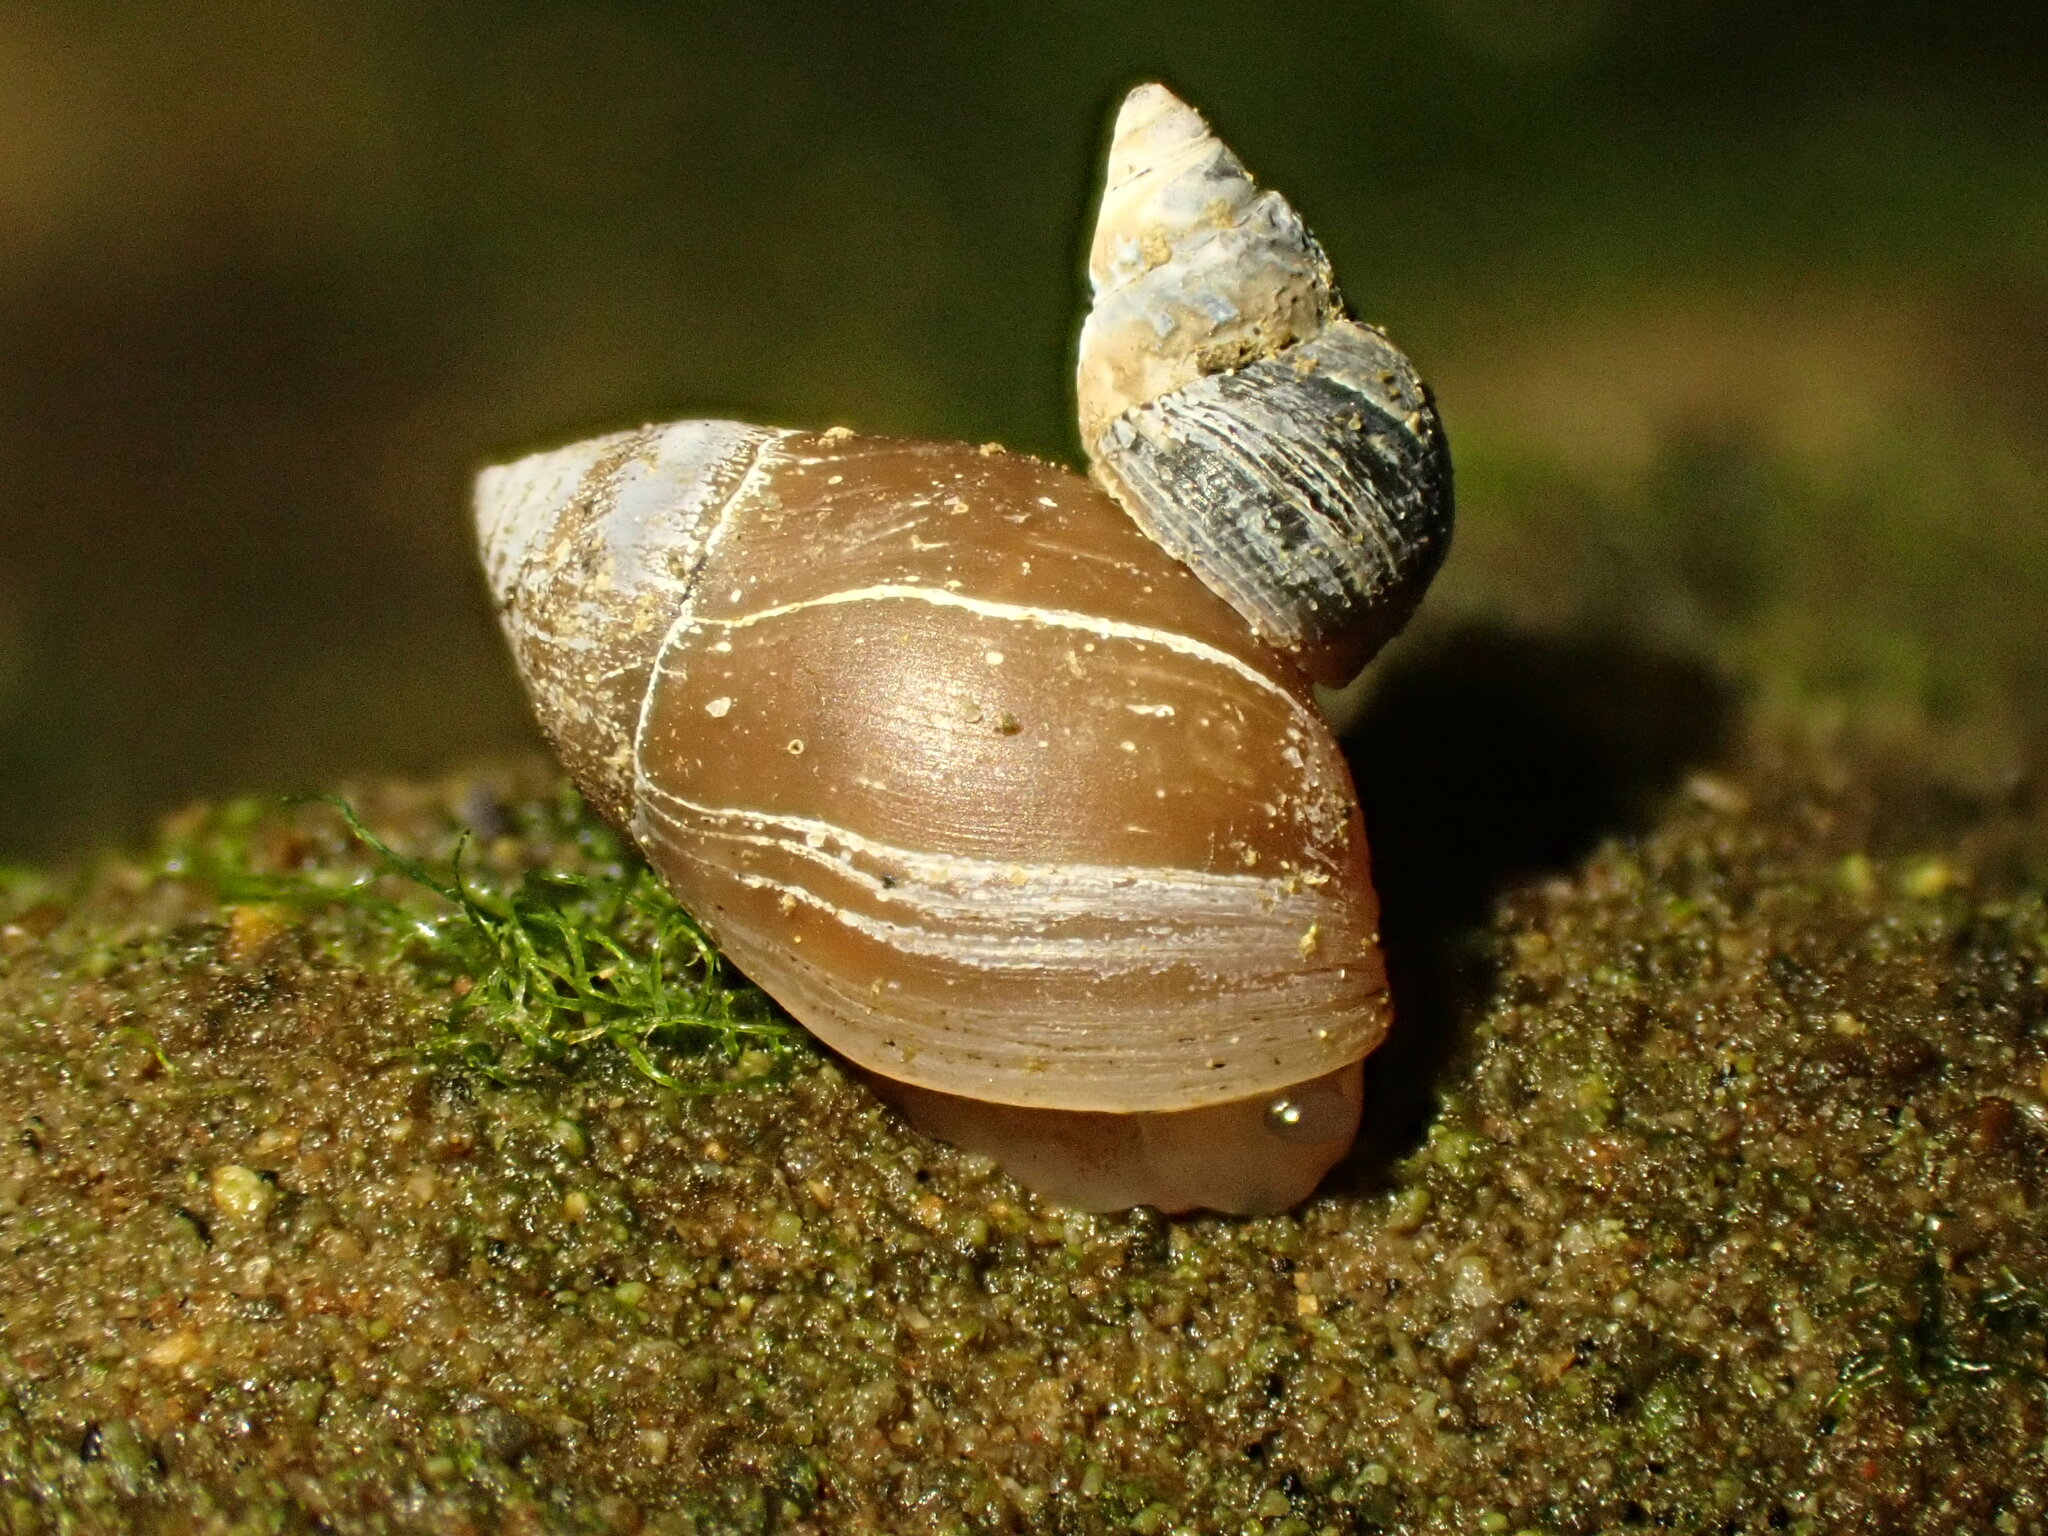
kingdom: Animalia
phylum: Mollusca
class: Gastropoda
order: Ellobiida
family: Ellobiidae
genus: Marinula
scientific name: Marinula filholi
